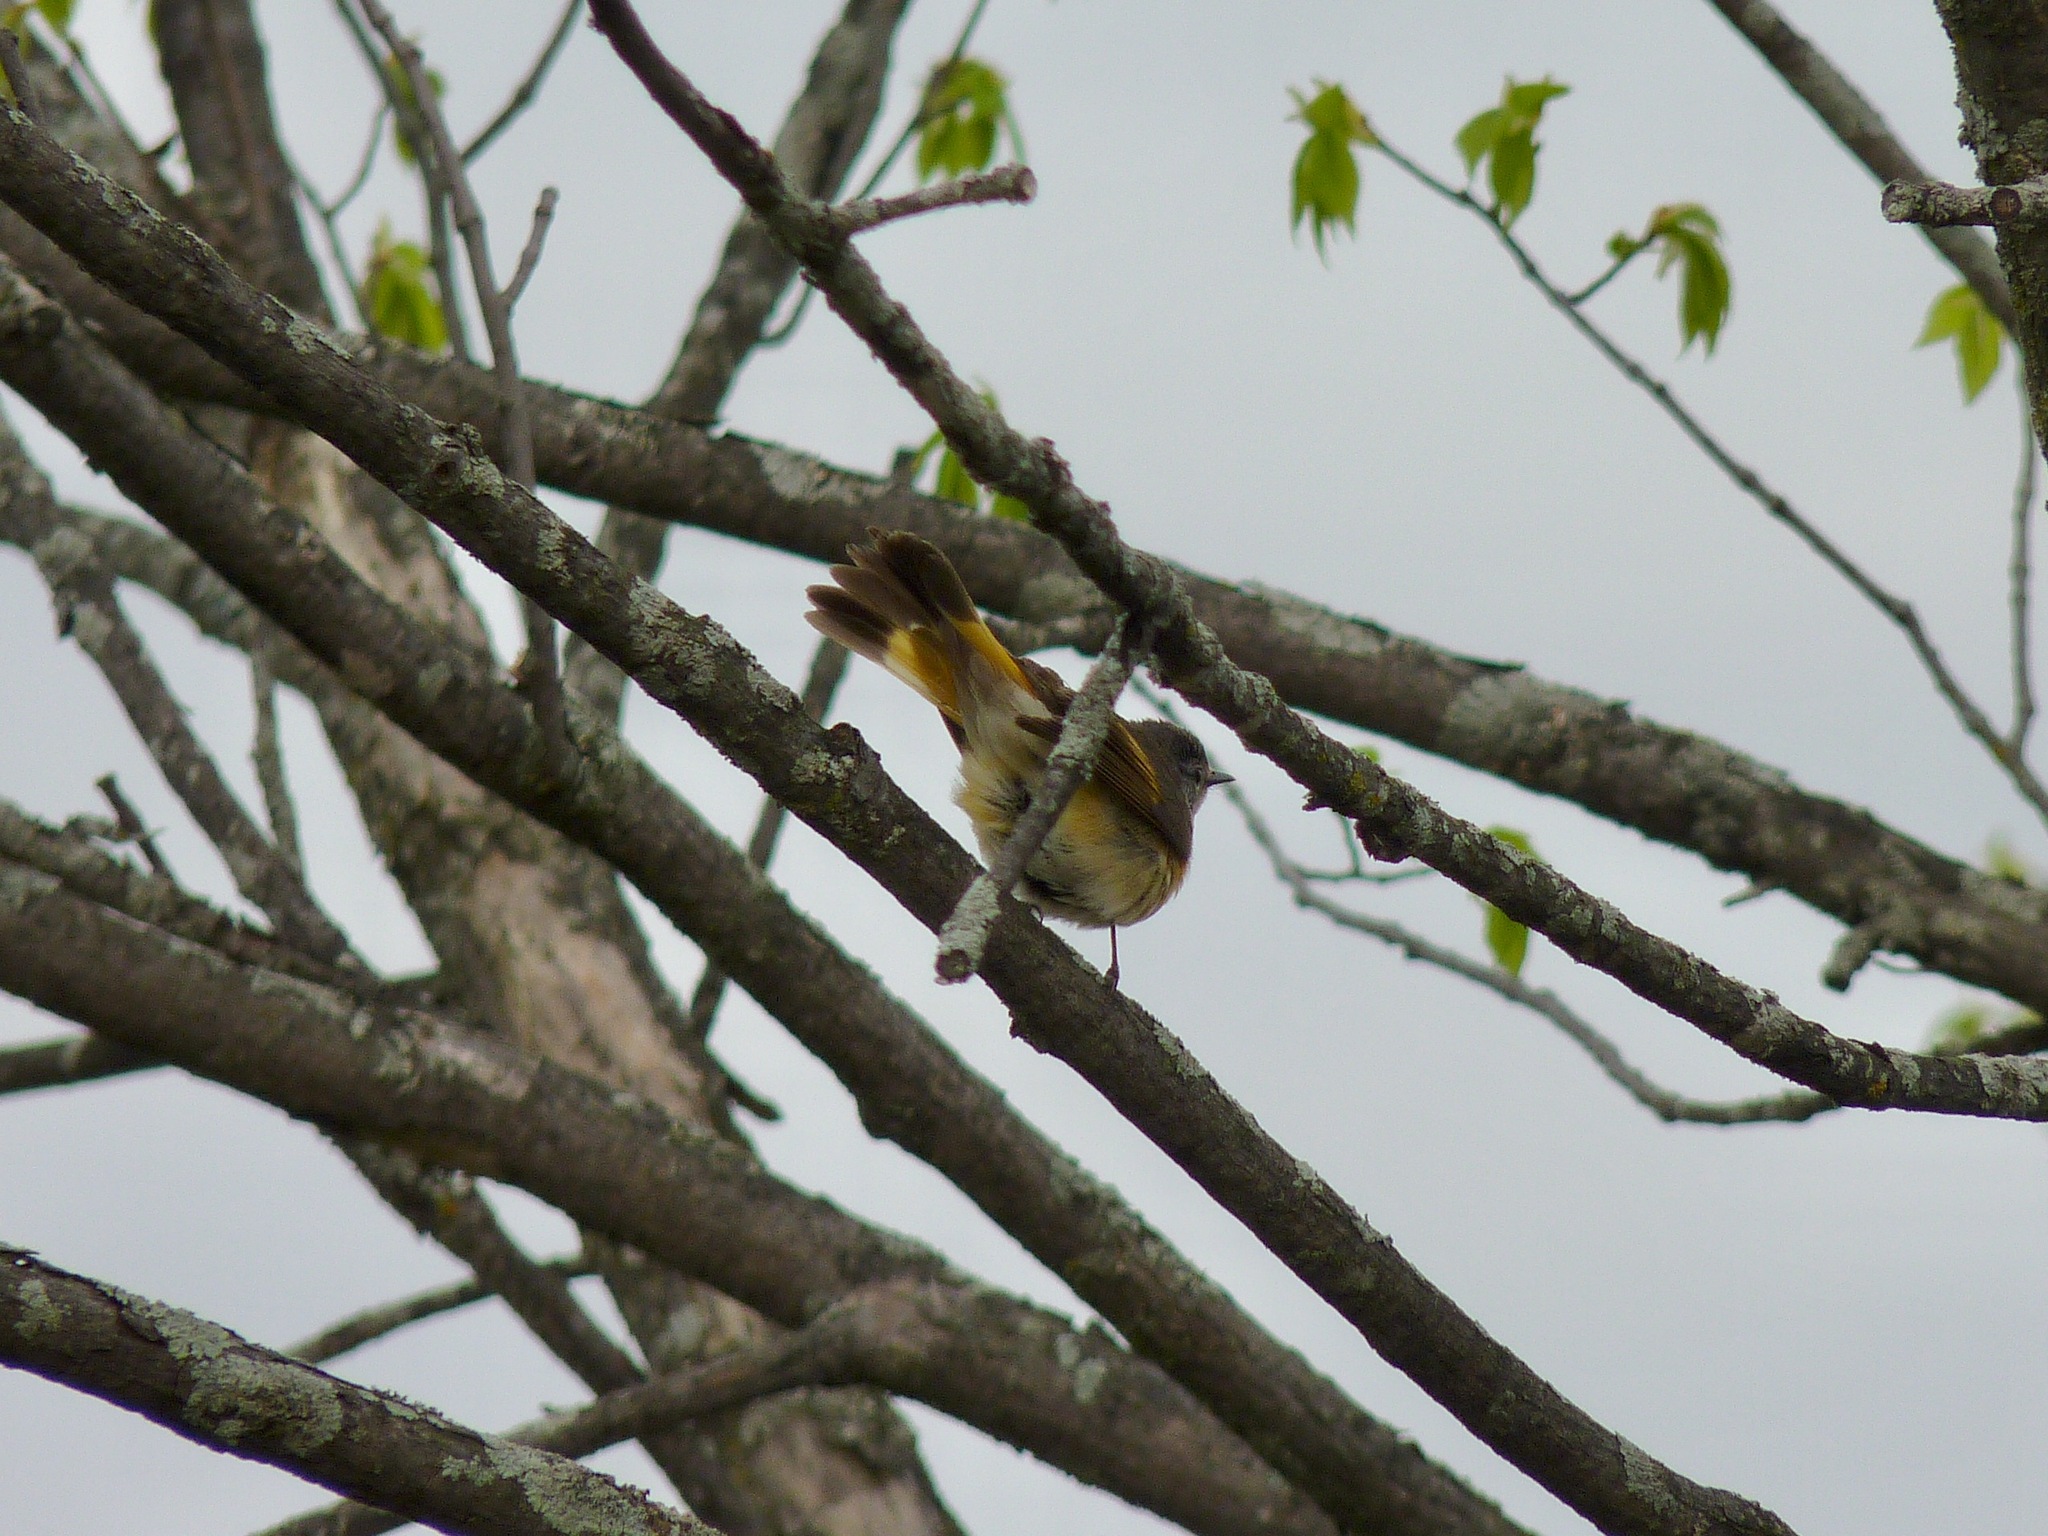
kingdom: Animalia
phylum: Chordata
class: Aves
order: Passeriformes
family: Parulidae
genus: Setophaga
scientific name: Setophaga ruticilla
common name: American redstart
